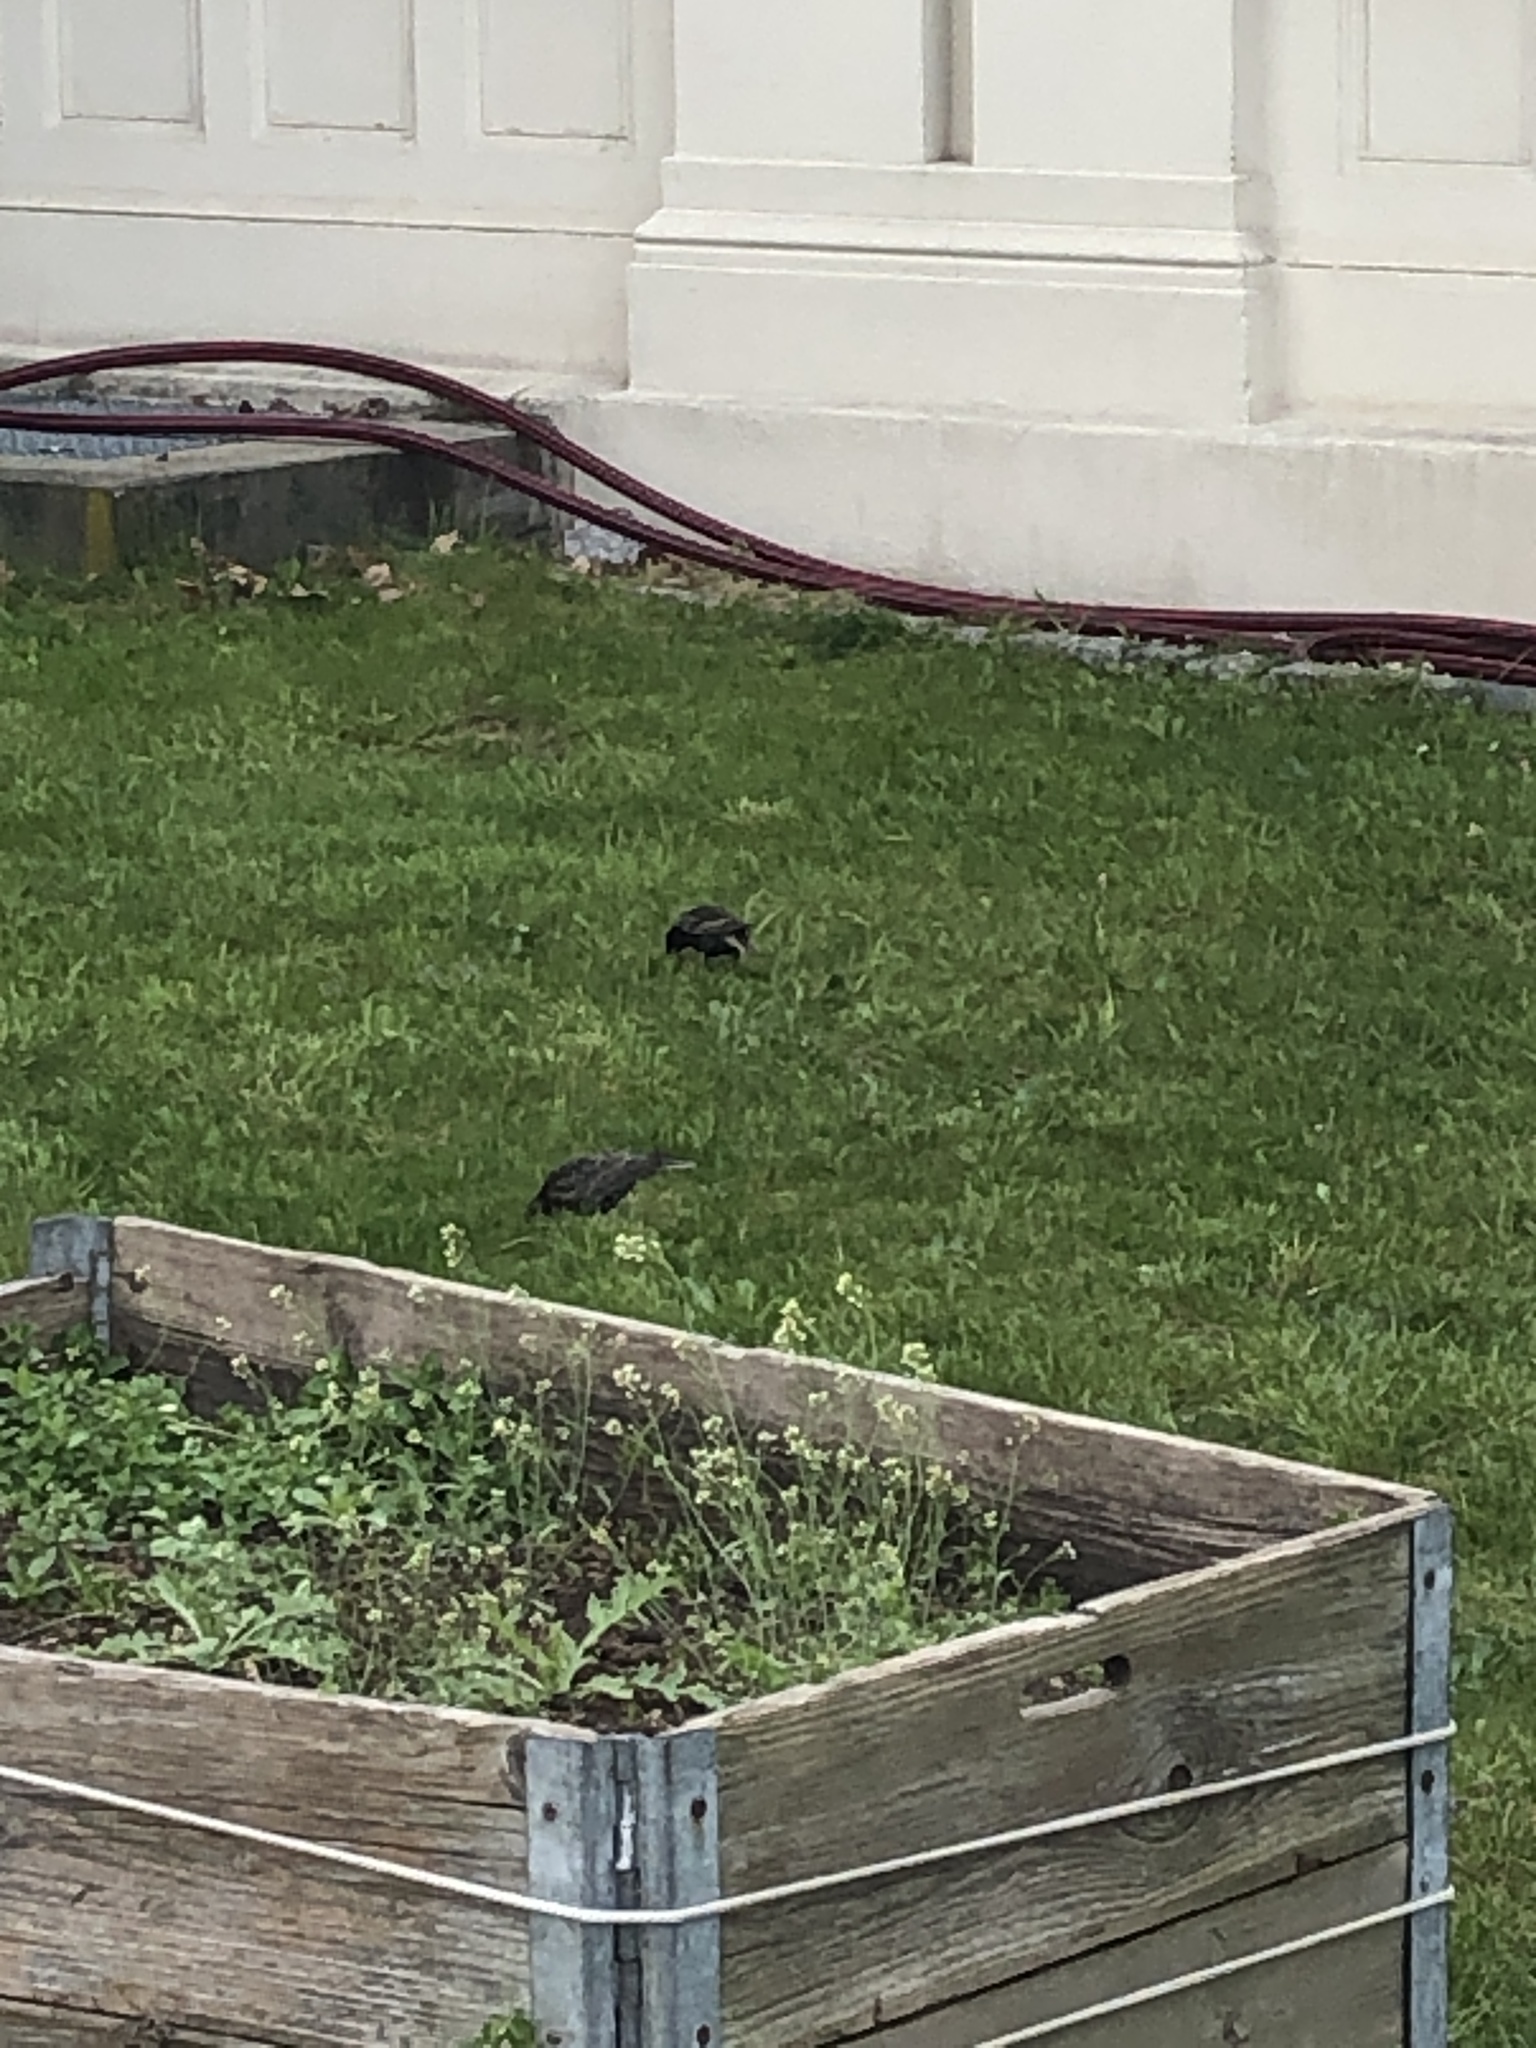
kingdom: Animalia
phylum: Chordata
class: Aves
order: Passeriformes
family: Sturnidae
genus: Sturnus
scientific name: Sturnus vulgaris
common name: Common starling
